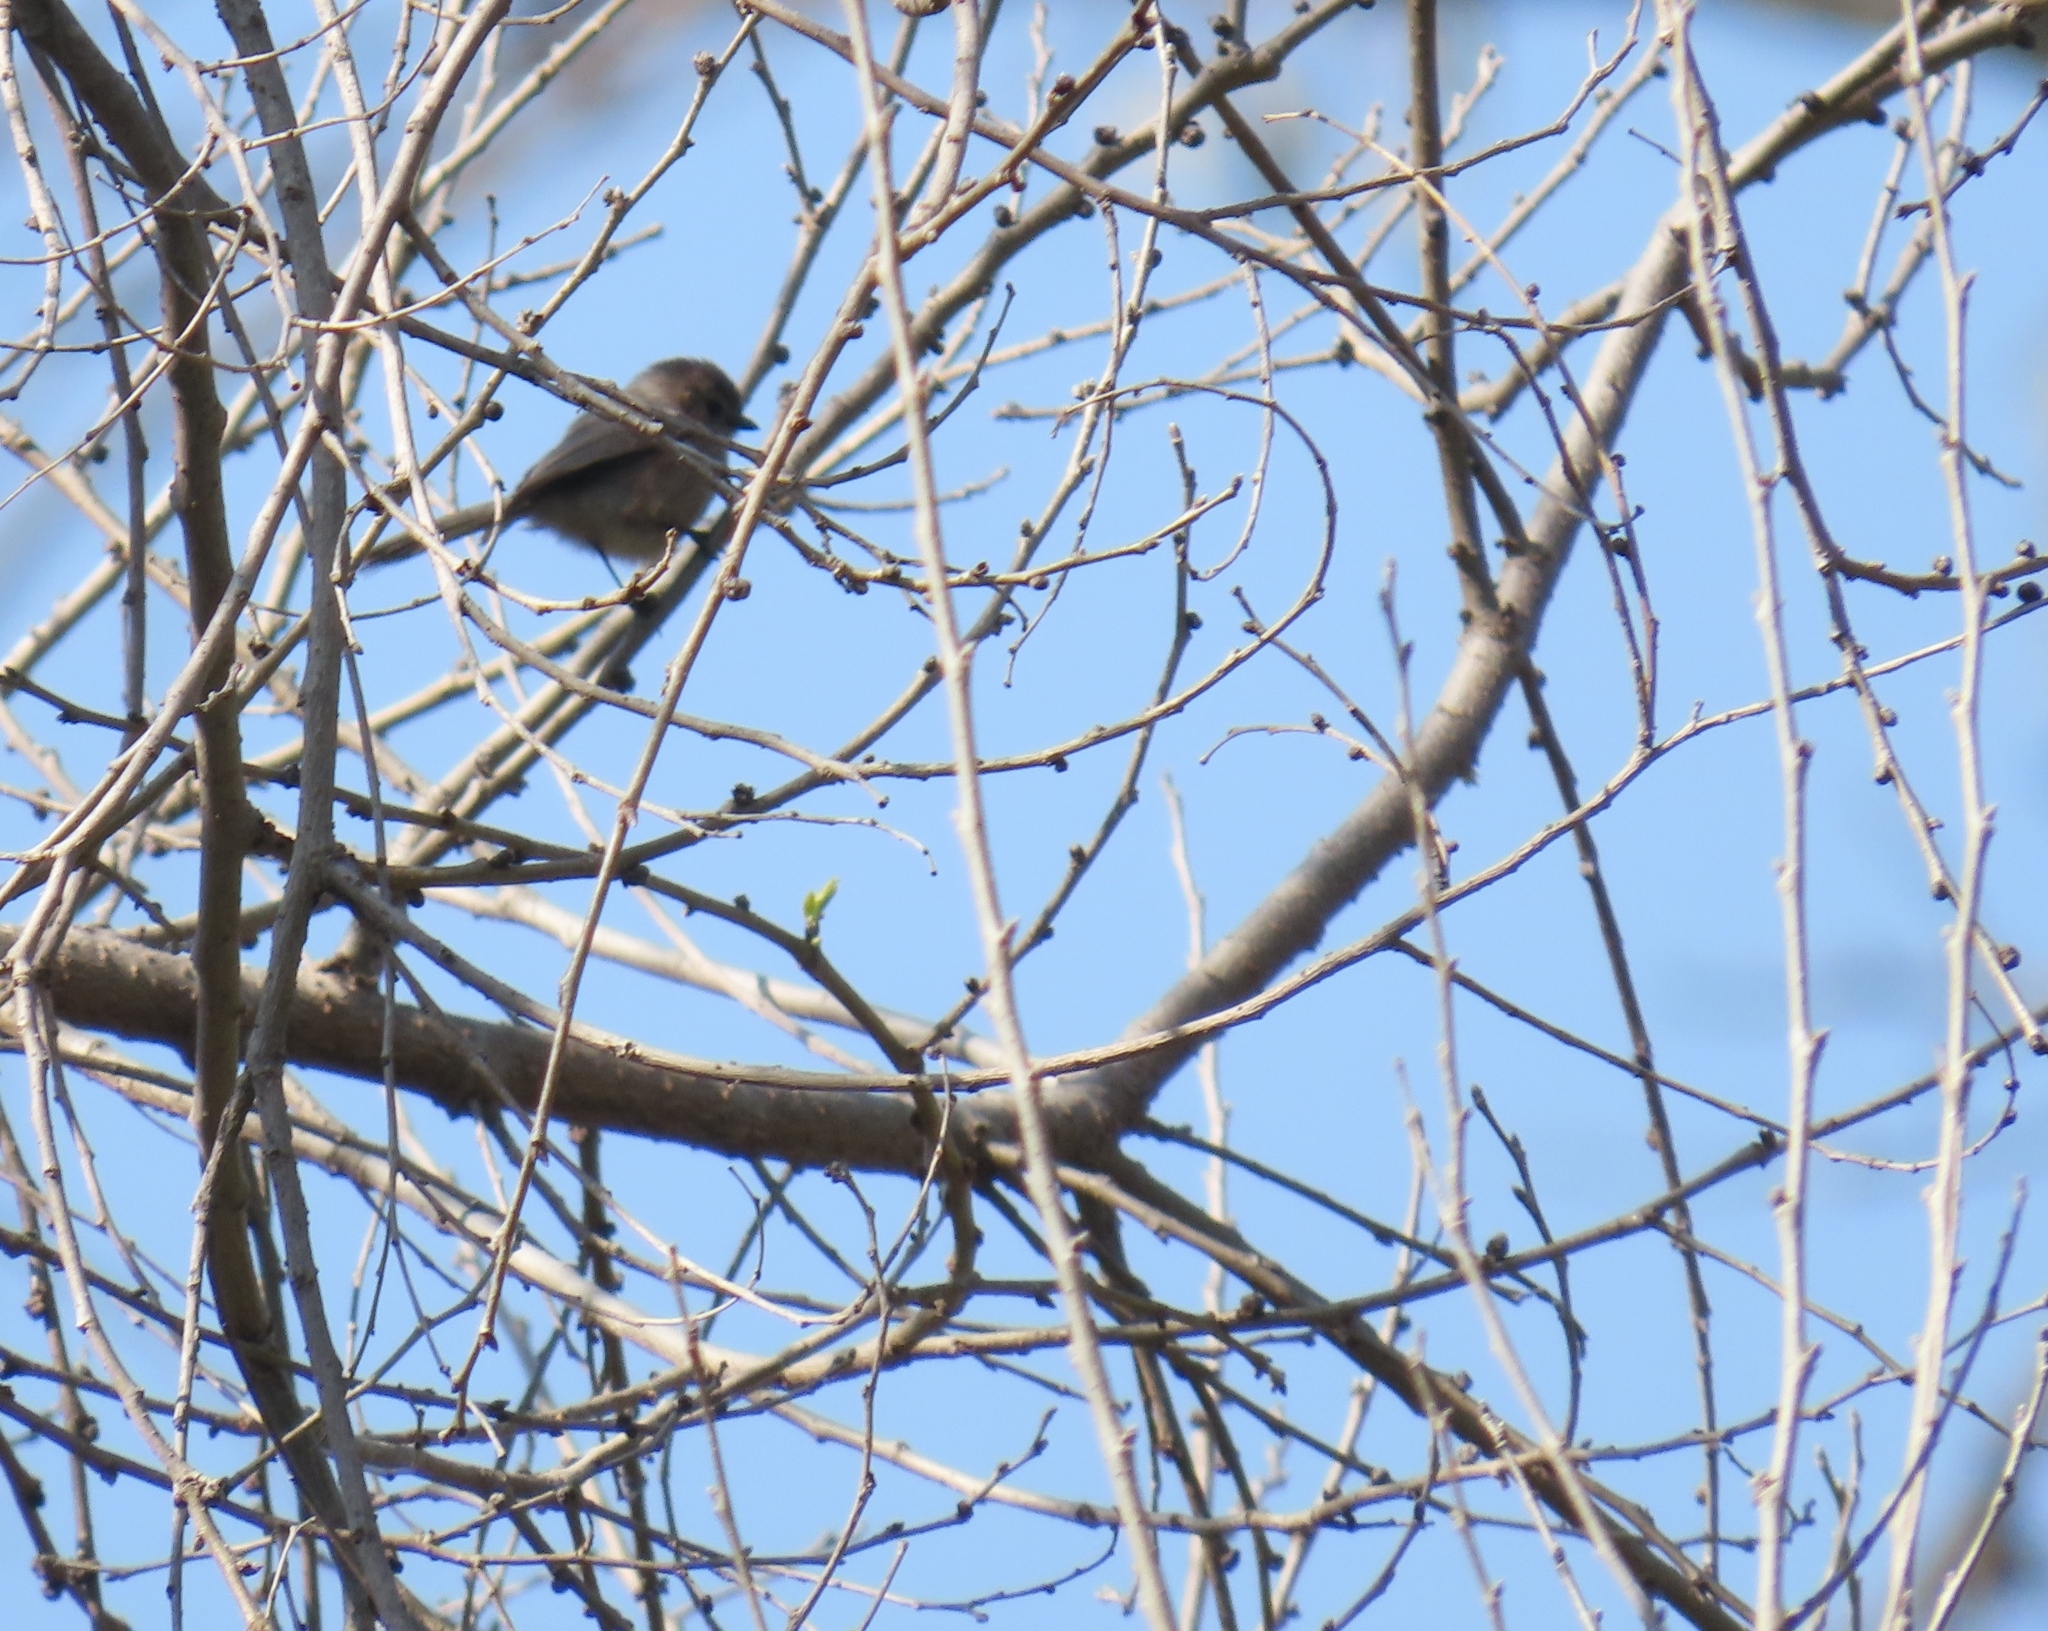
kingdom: Animalia
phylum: Chordata
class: Aves
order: Passeriformes
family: Aegithalidae
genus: Psaltriparus
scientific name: Psaltriparus minimus
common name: American bushtit
